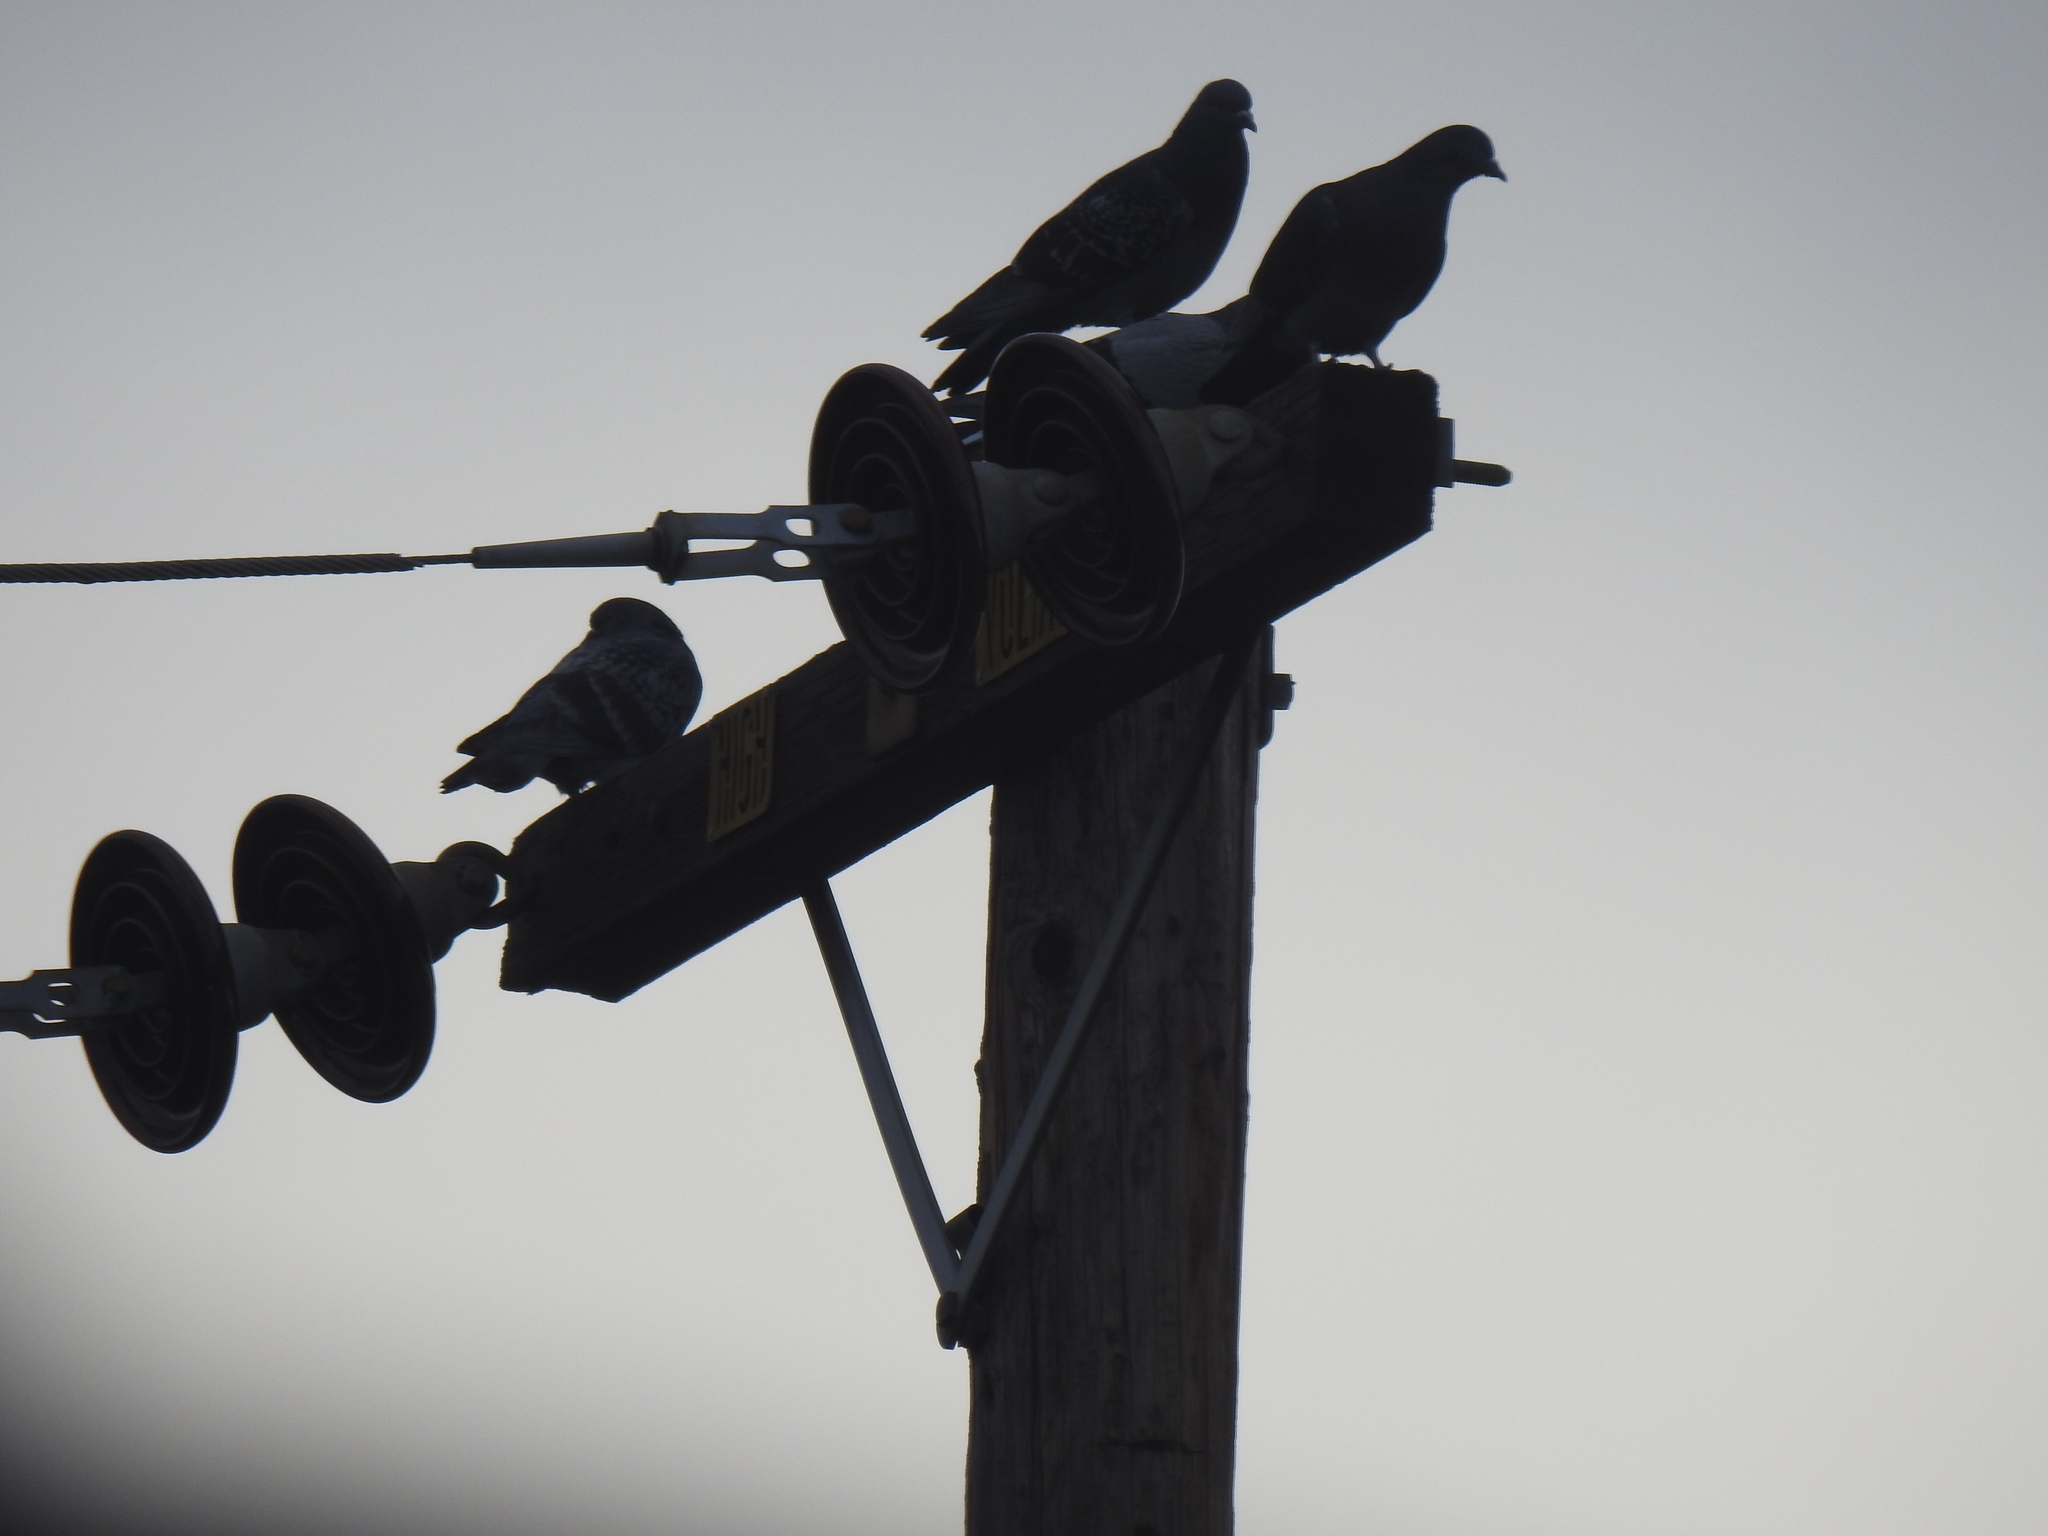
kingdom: Animalia
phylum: Chordata
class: Aves
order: Columbiformes
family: Columbidae
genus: Columba
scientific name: Columba livia
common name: Rock pigeon
